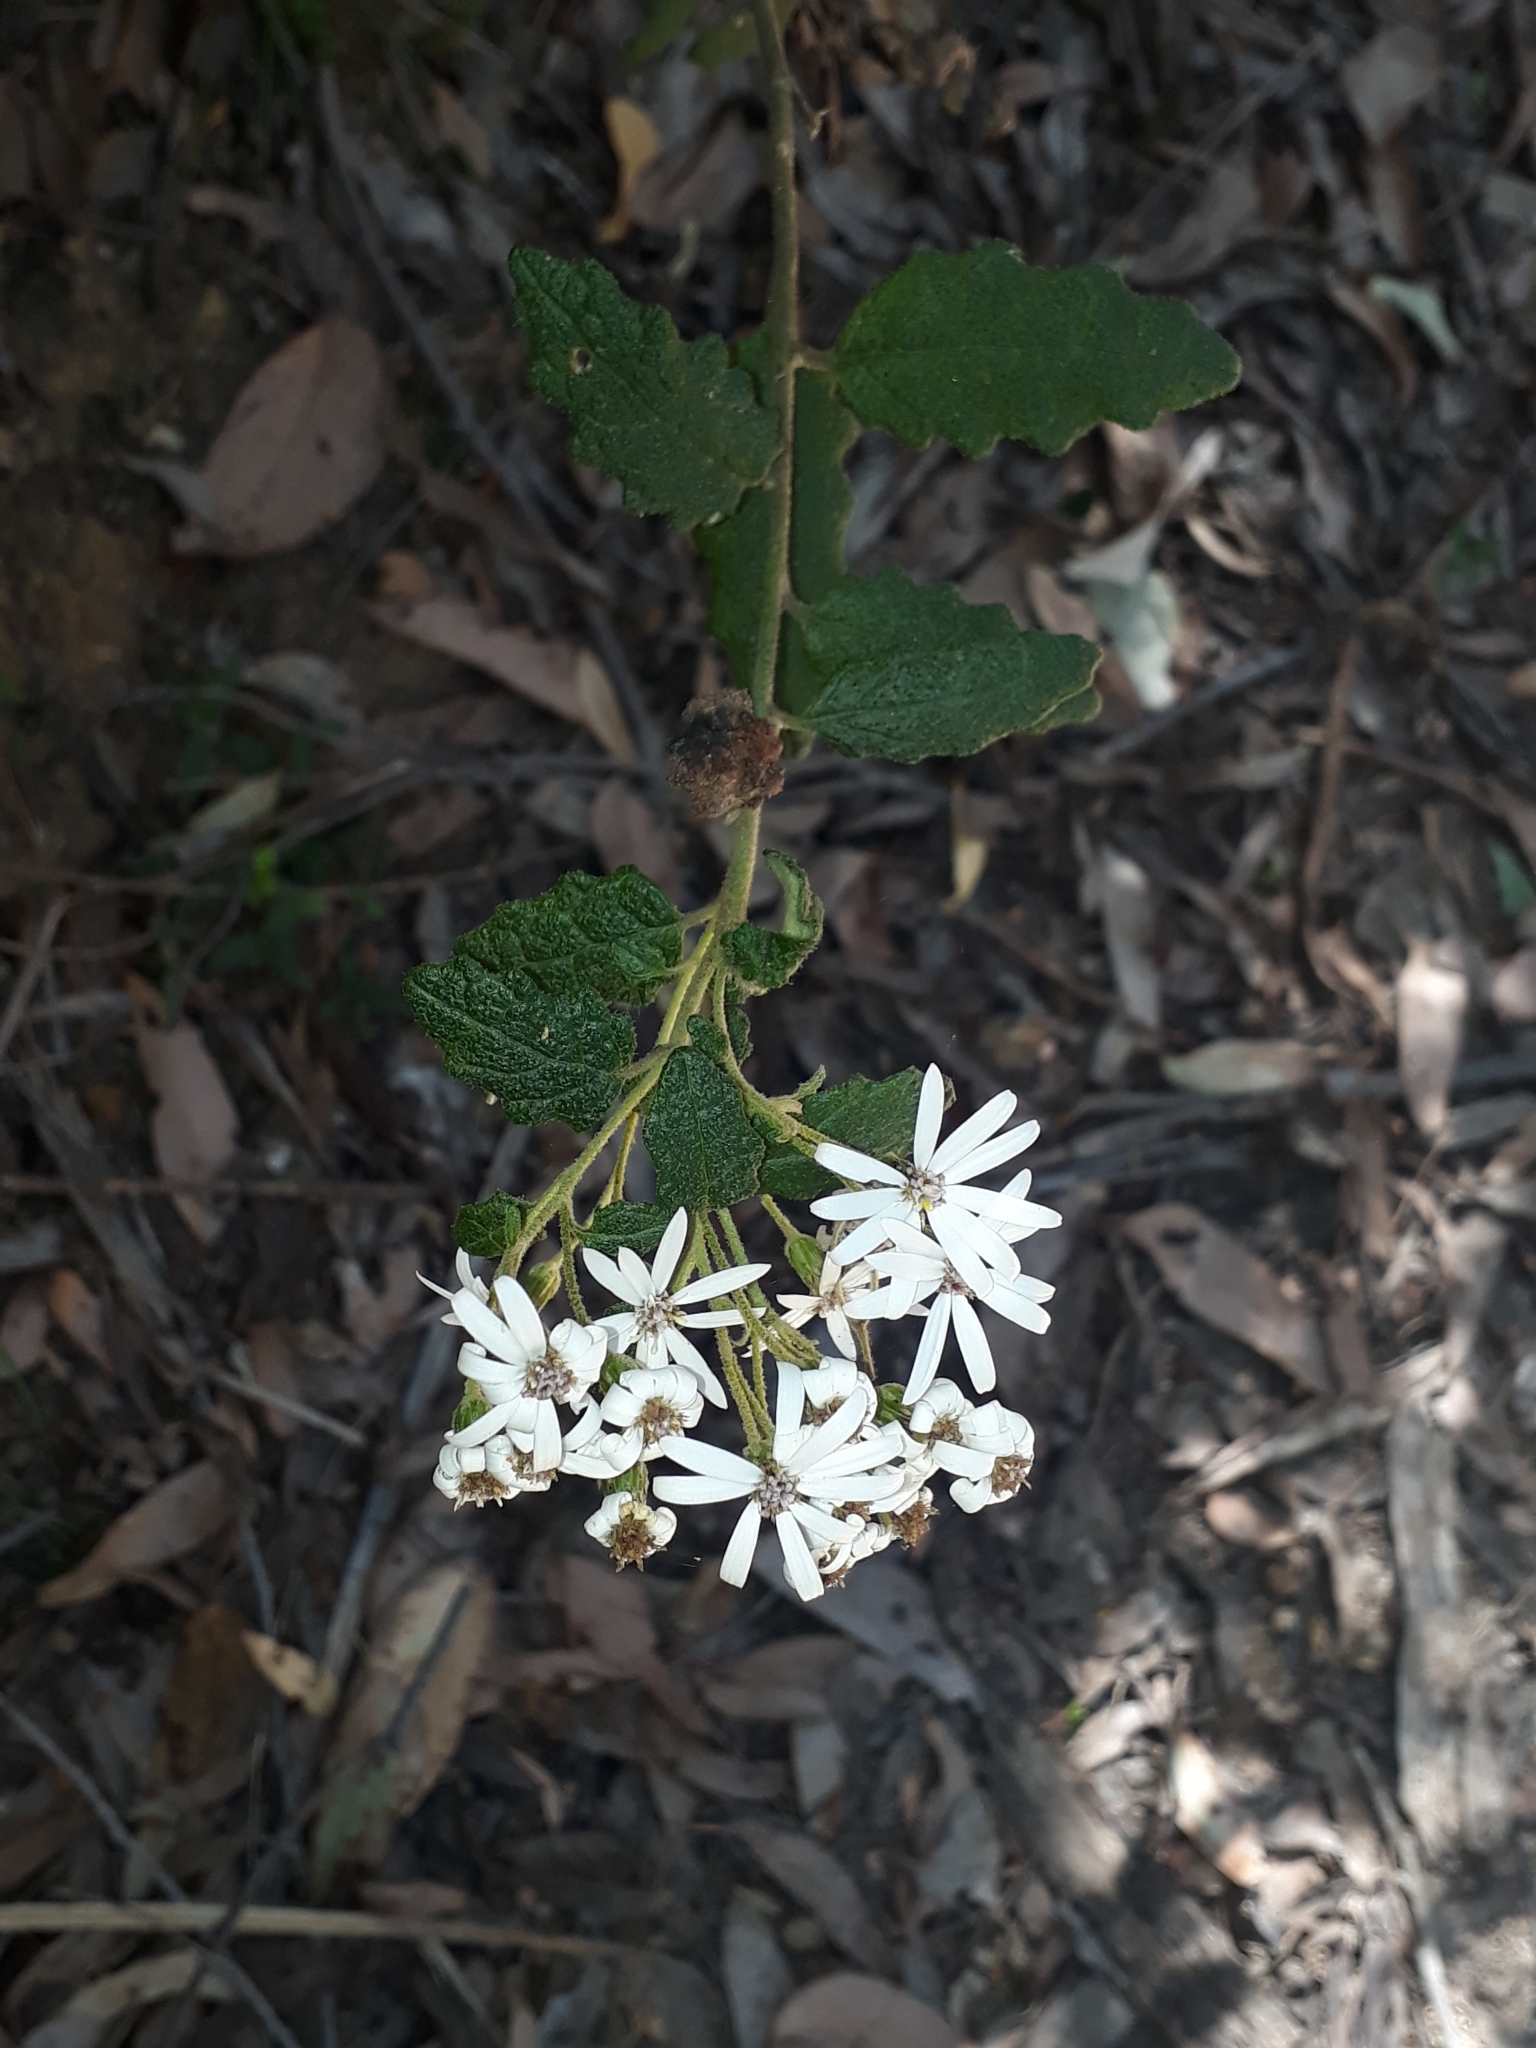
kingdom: Plantae
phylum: Tracheophyta
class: Magnoliopsida
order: Asterales
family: Asteraceae
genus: Olearia
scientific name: Olearia rugosa
